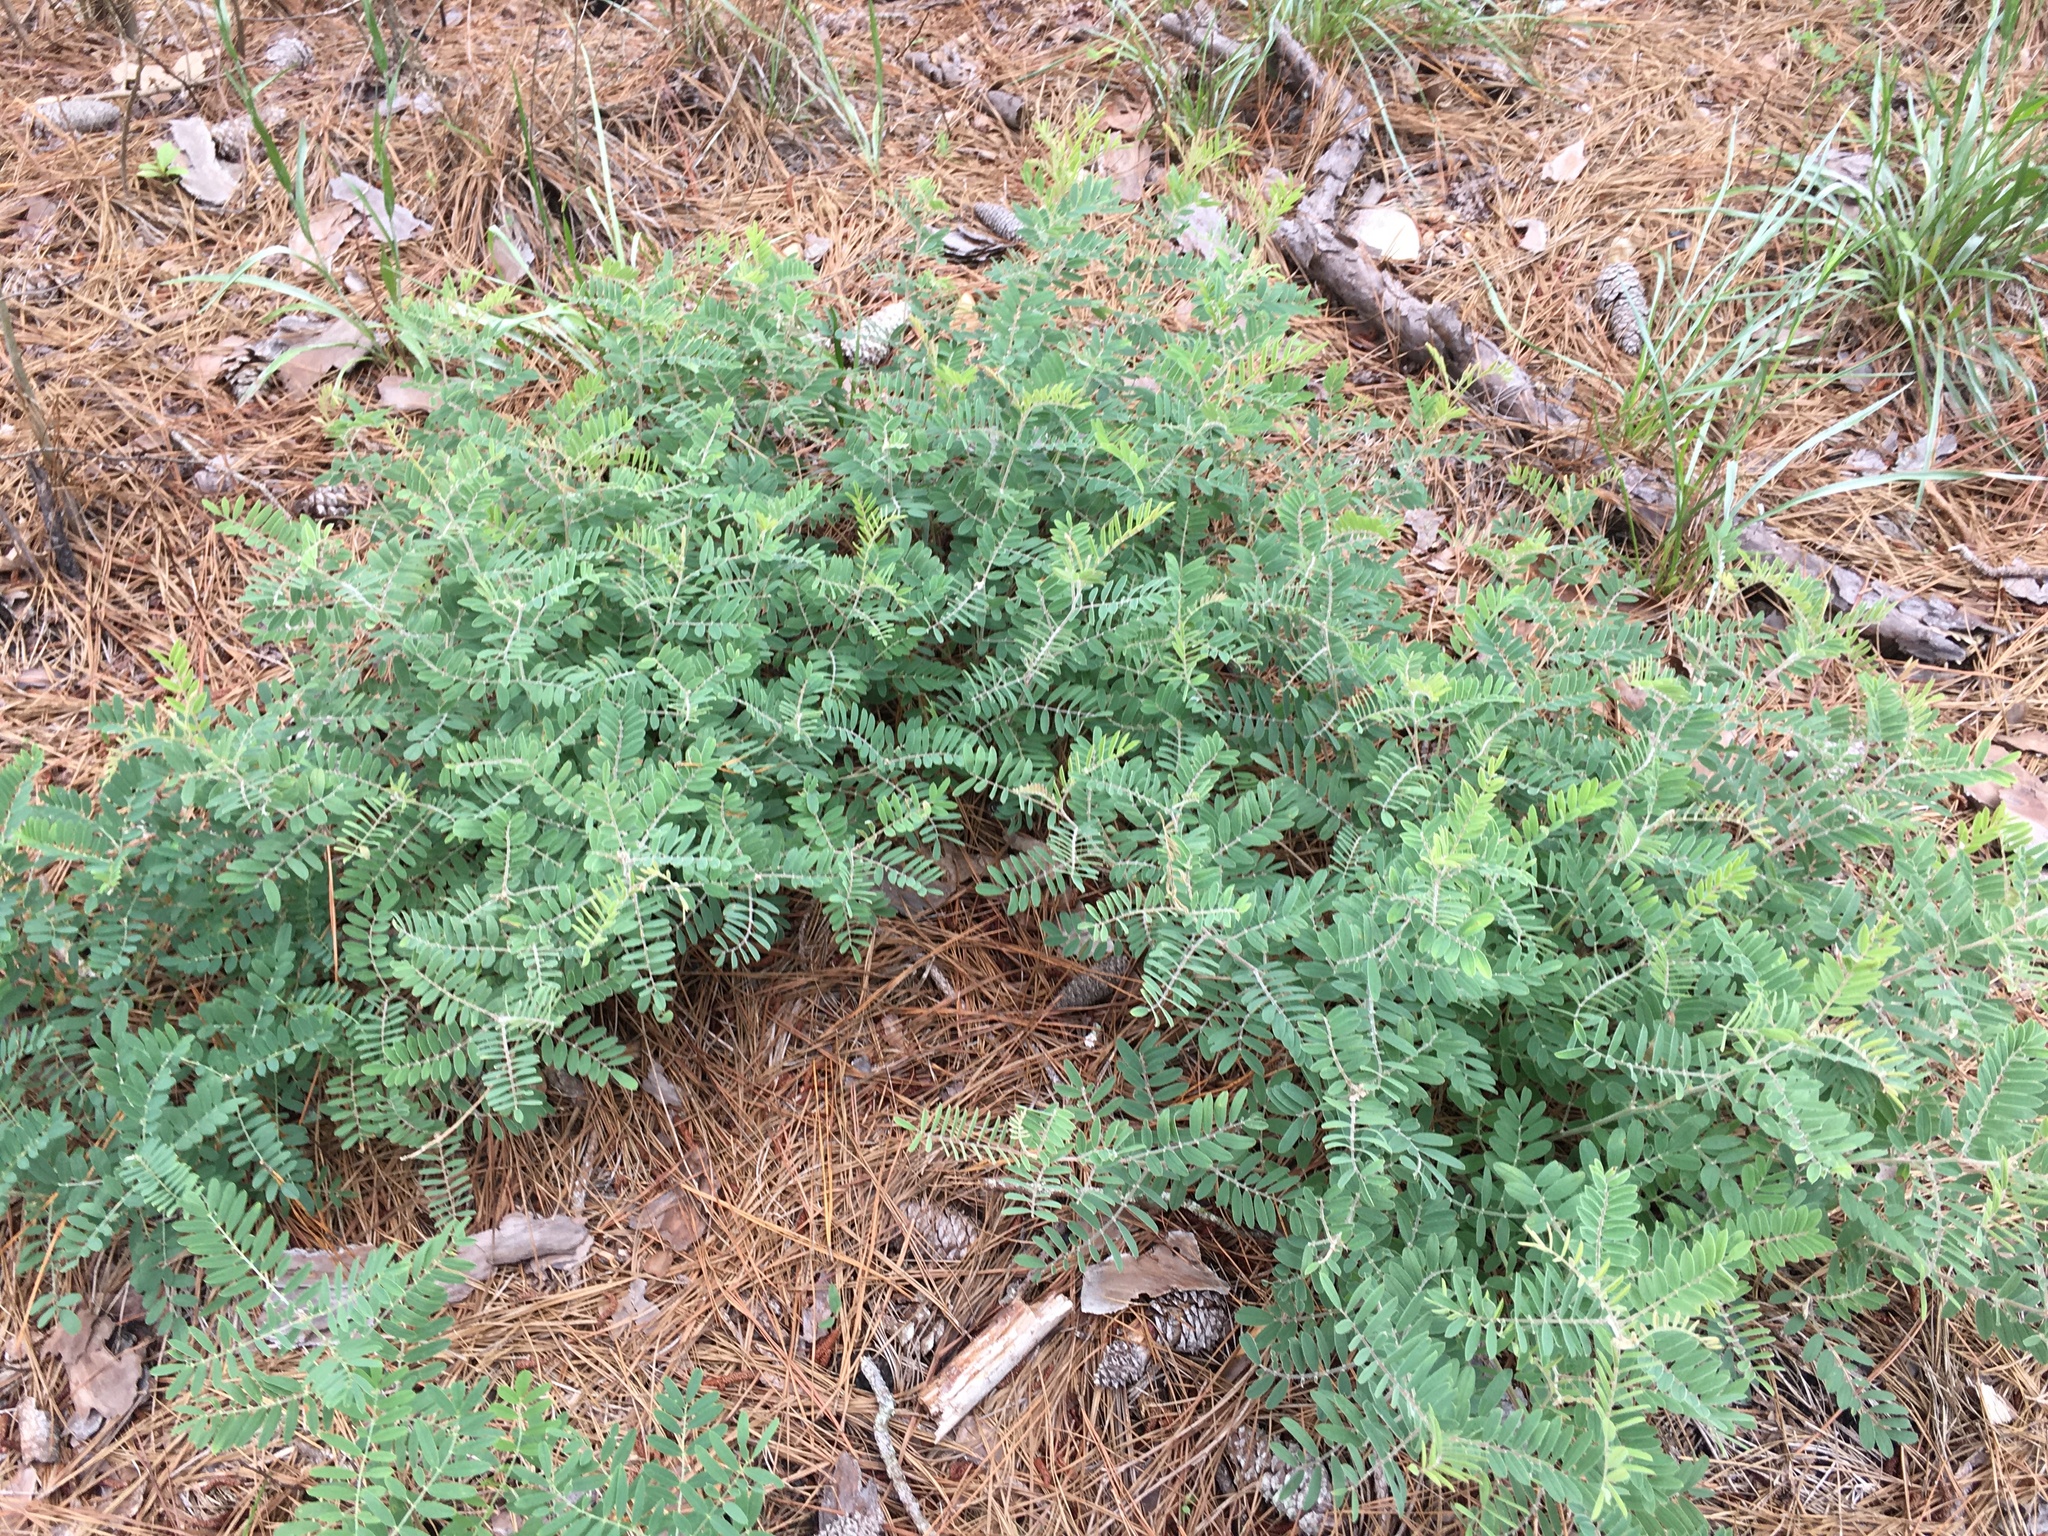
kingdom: Plantae
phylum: Tracheophyta
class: Magnoliopsida
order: Fabales
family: Fabaceae
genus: Tephrosia
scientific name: Tephrosia virginiana
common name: Rabbit-pea
